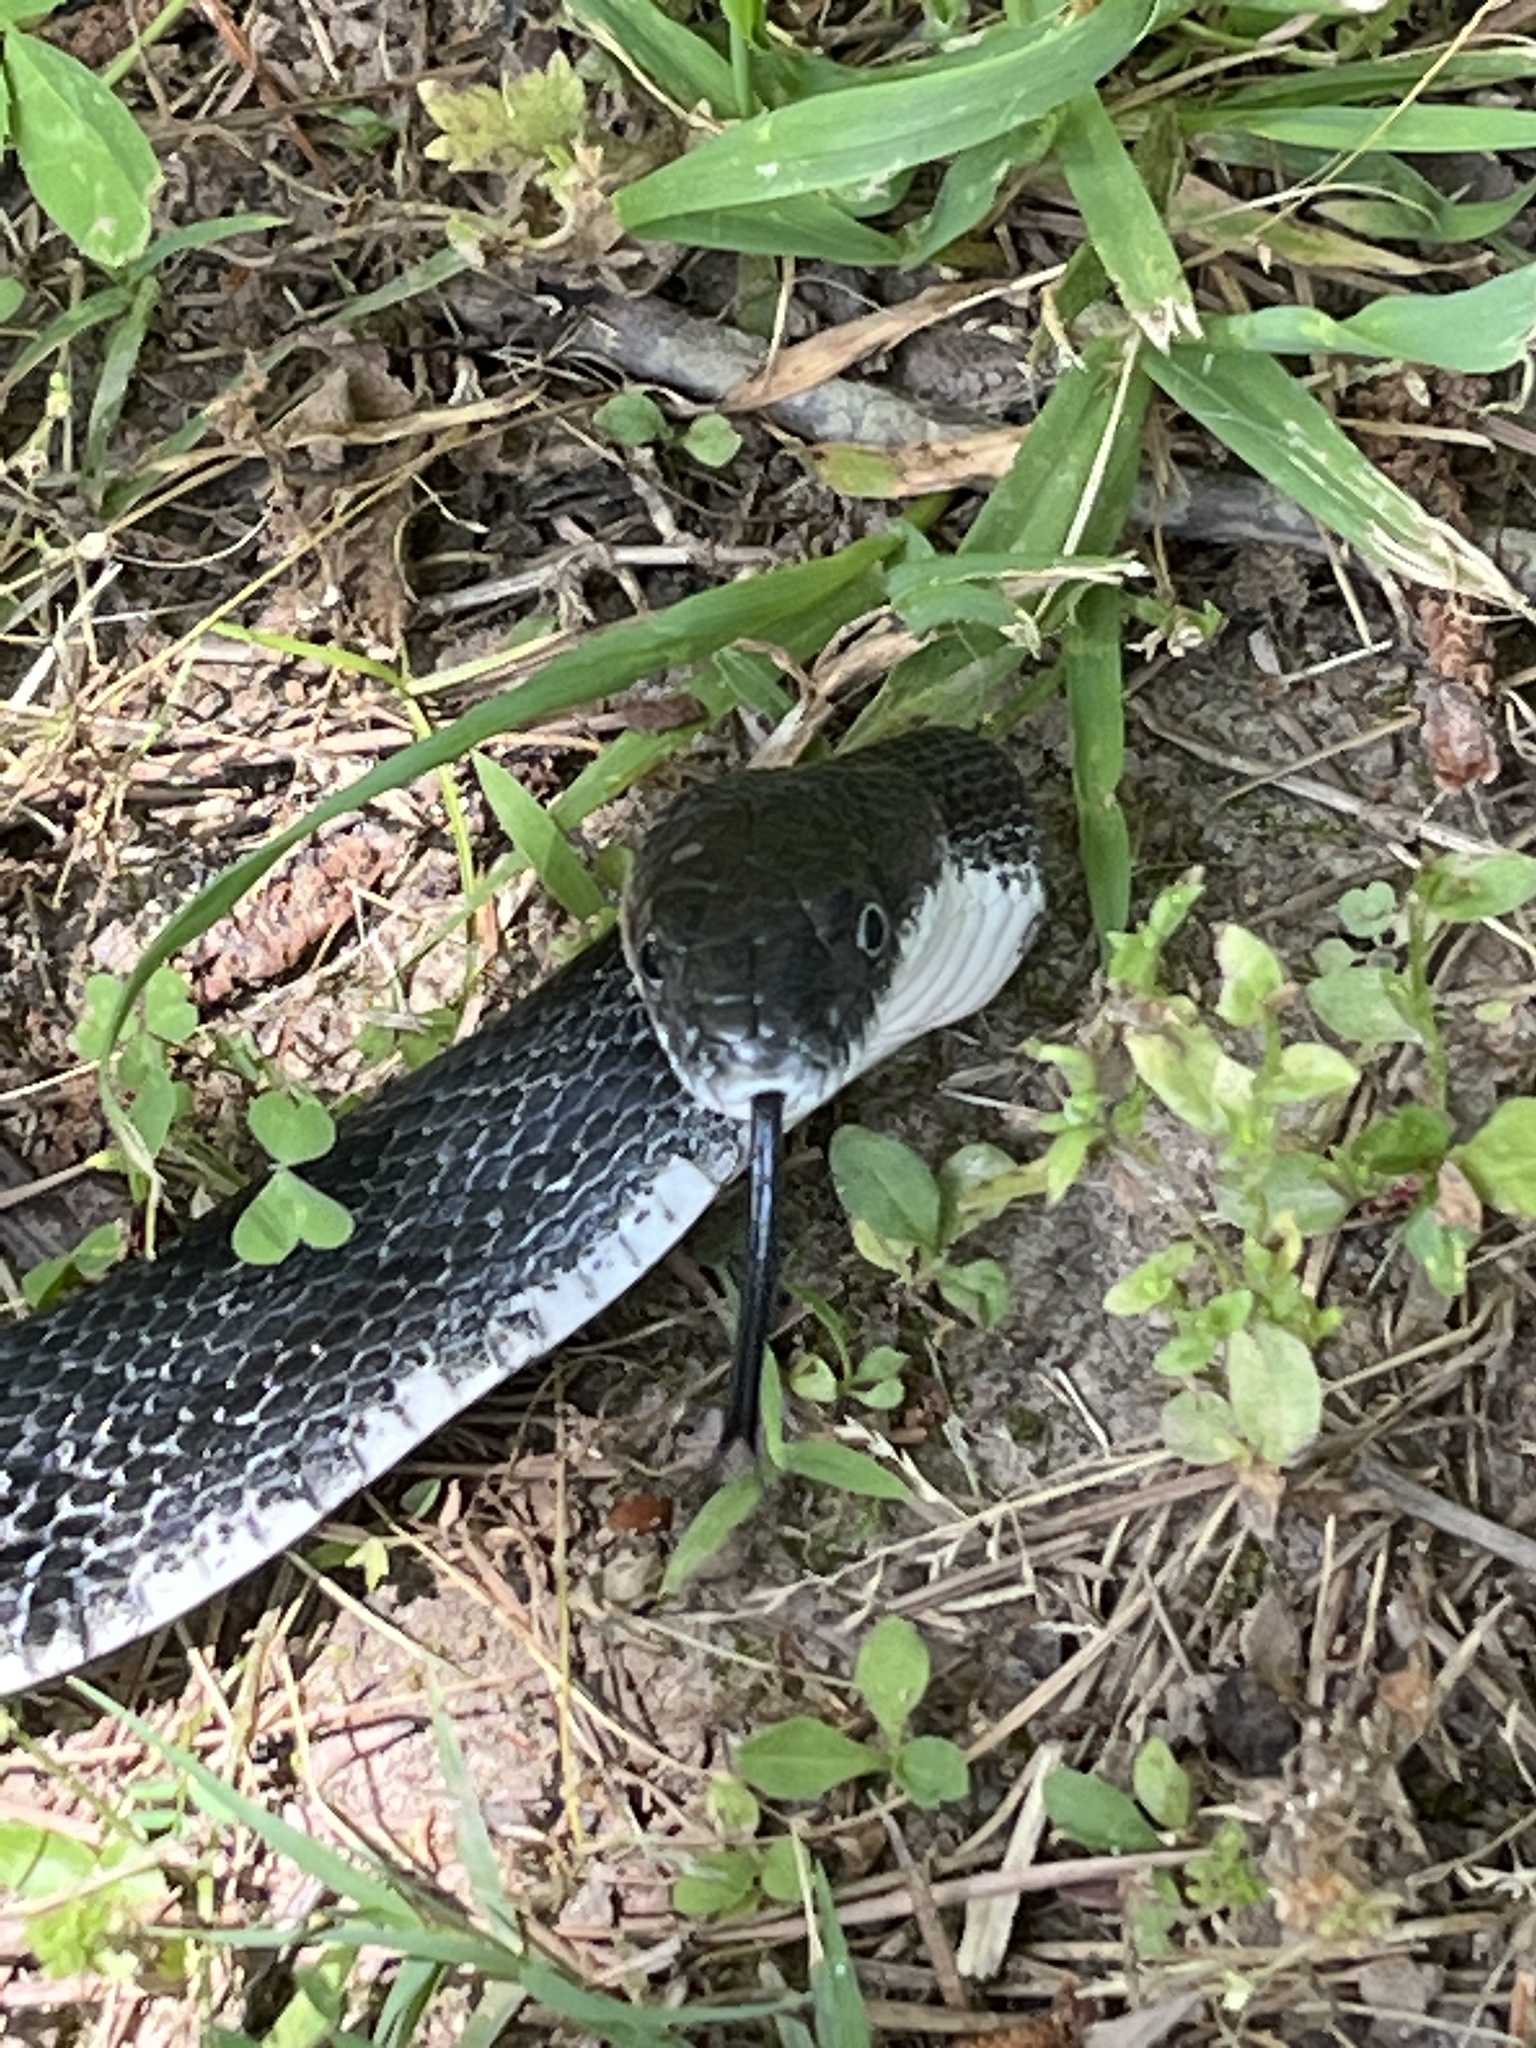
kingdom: Animalia
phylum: Chordata
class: Squamata
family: Colubridae
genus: Pantherophis
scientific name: Pantherophis alleghaniensis
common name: Eastern rat snake
